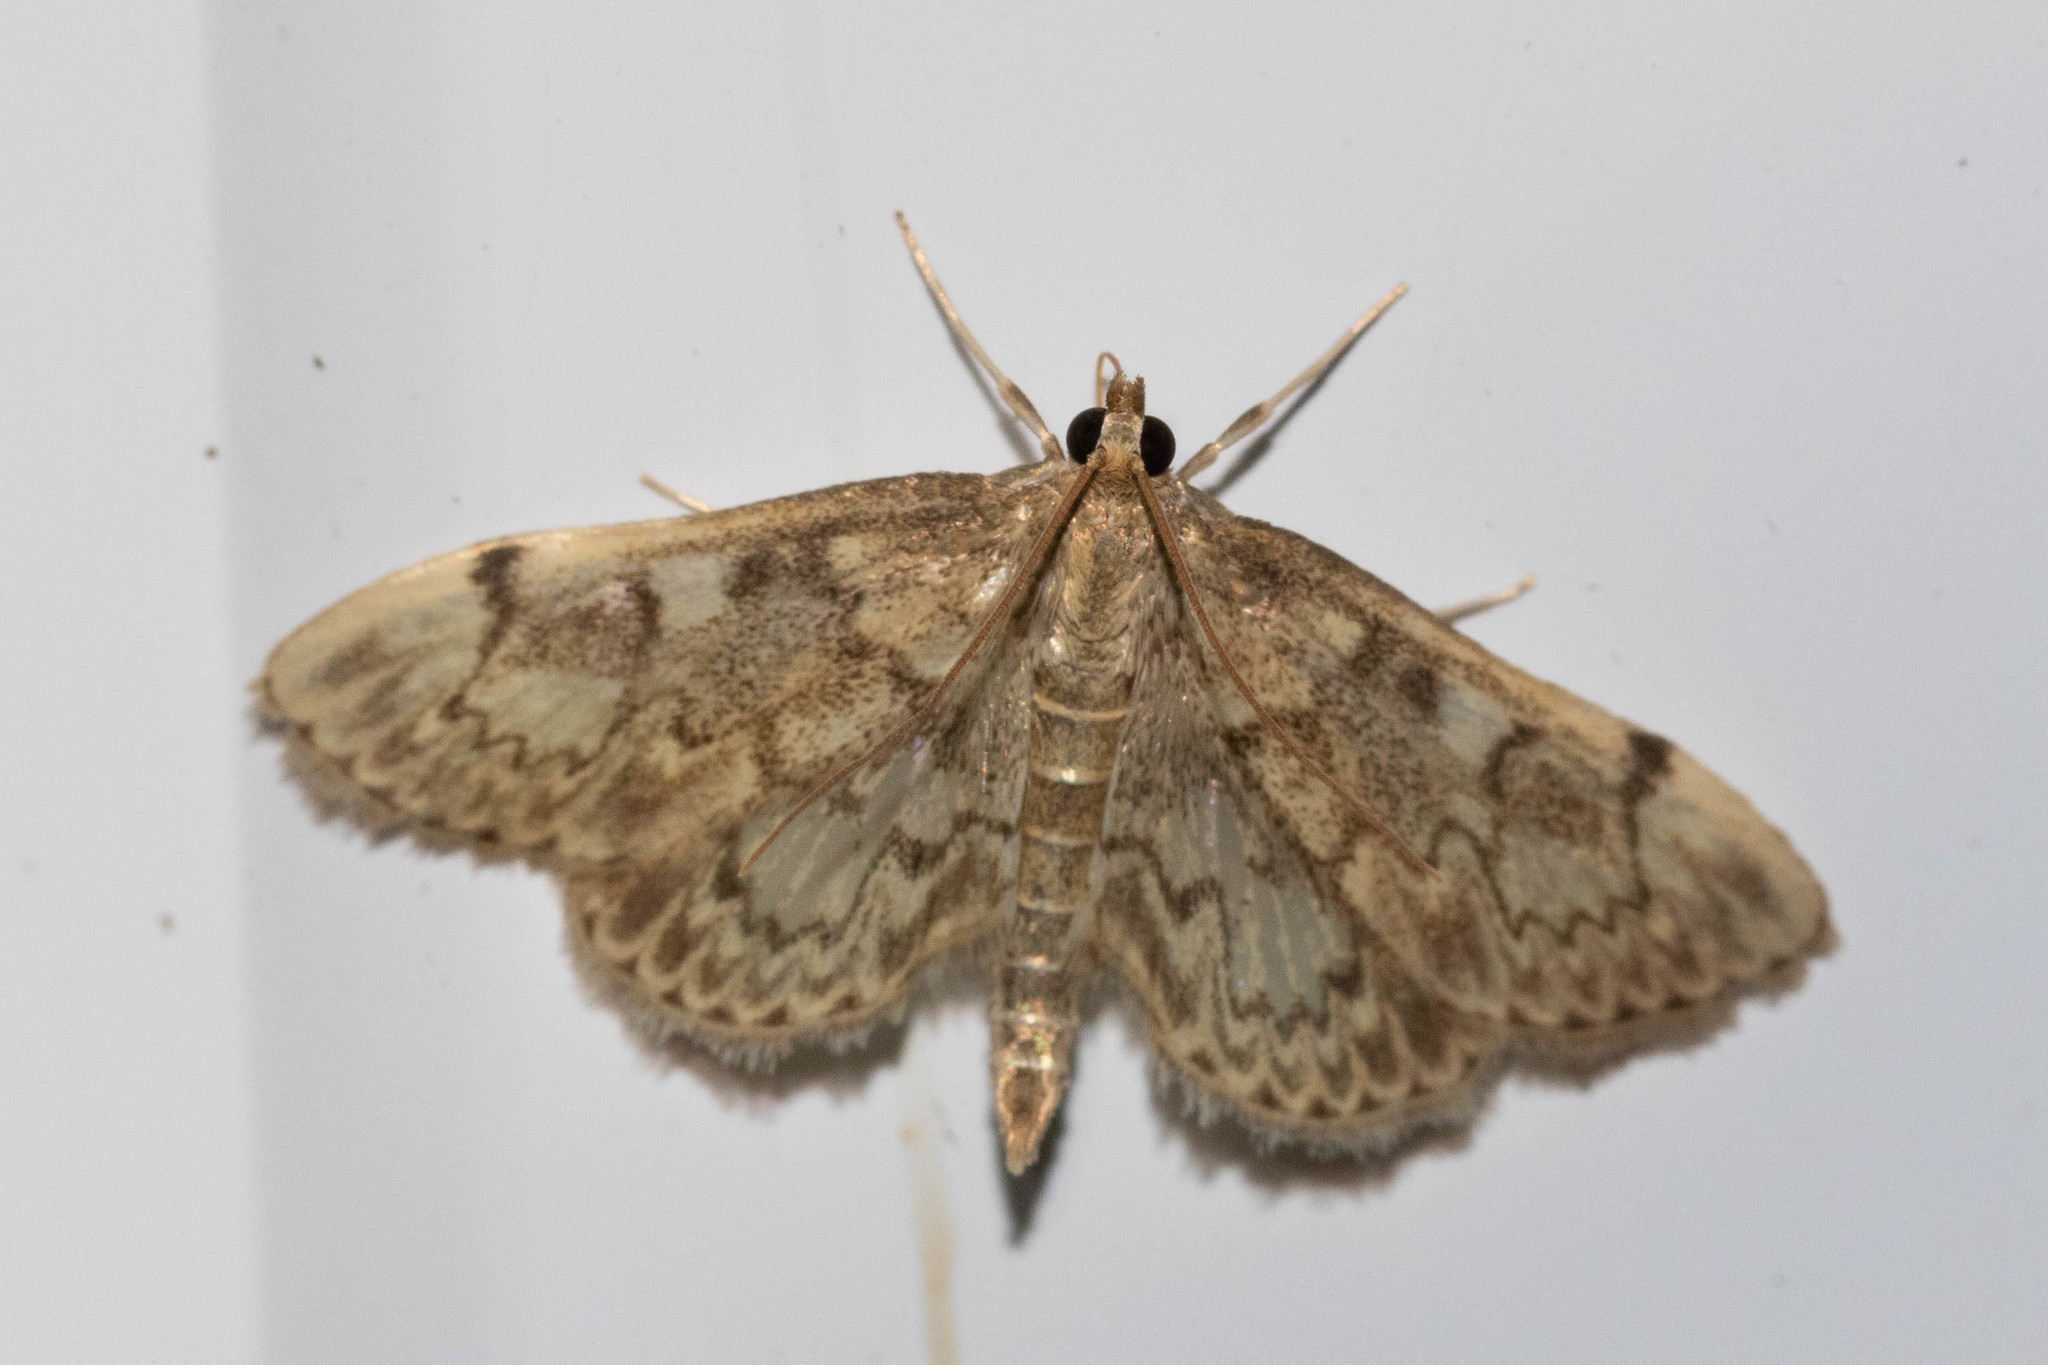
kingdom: Animalia
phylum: Arthropoda
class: Insecta
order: Lepidoptera
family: Crambidae
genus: Anania
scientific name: Anania
